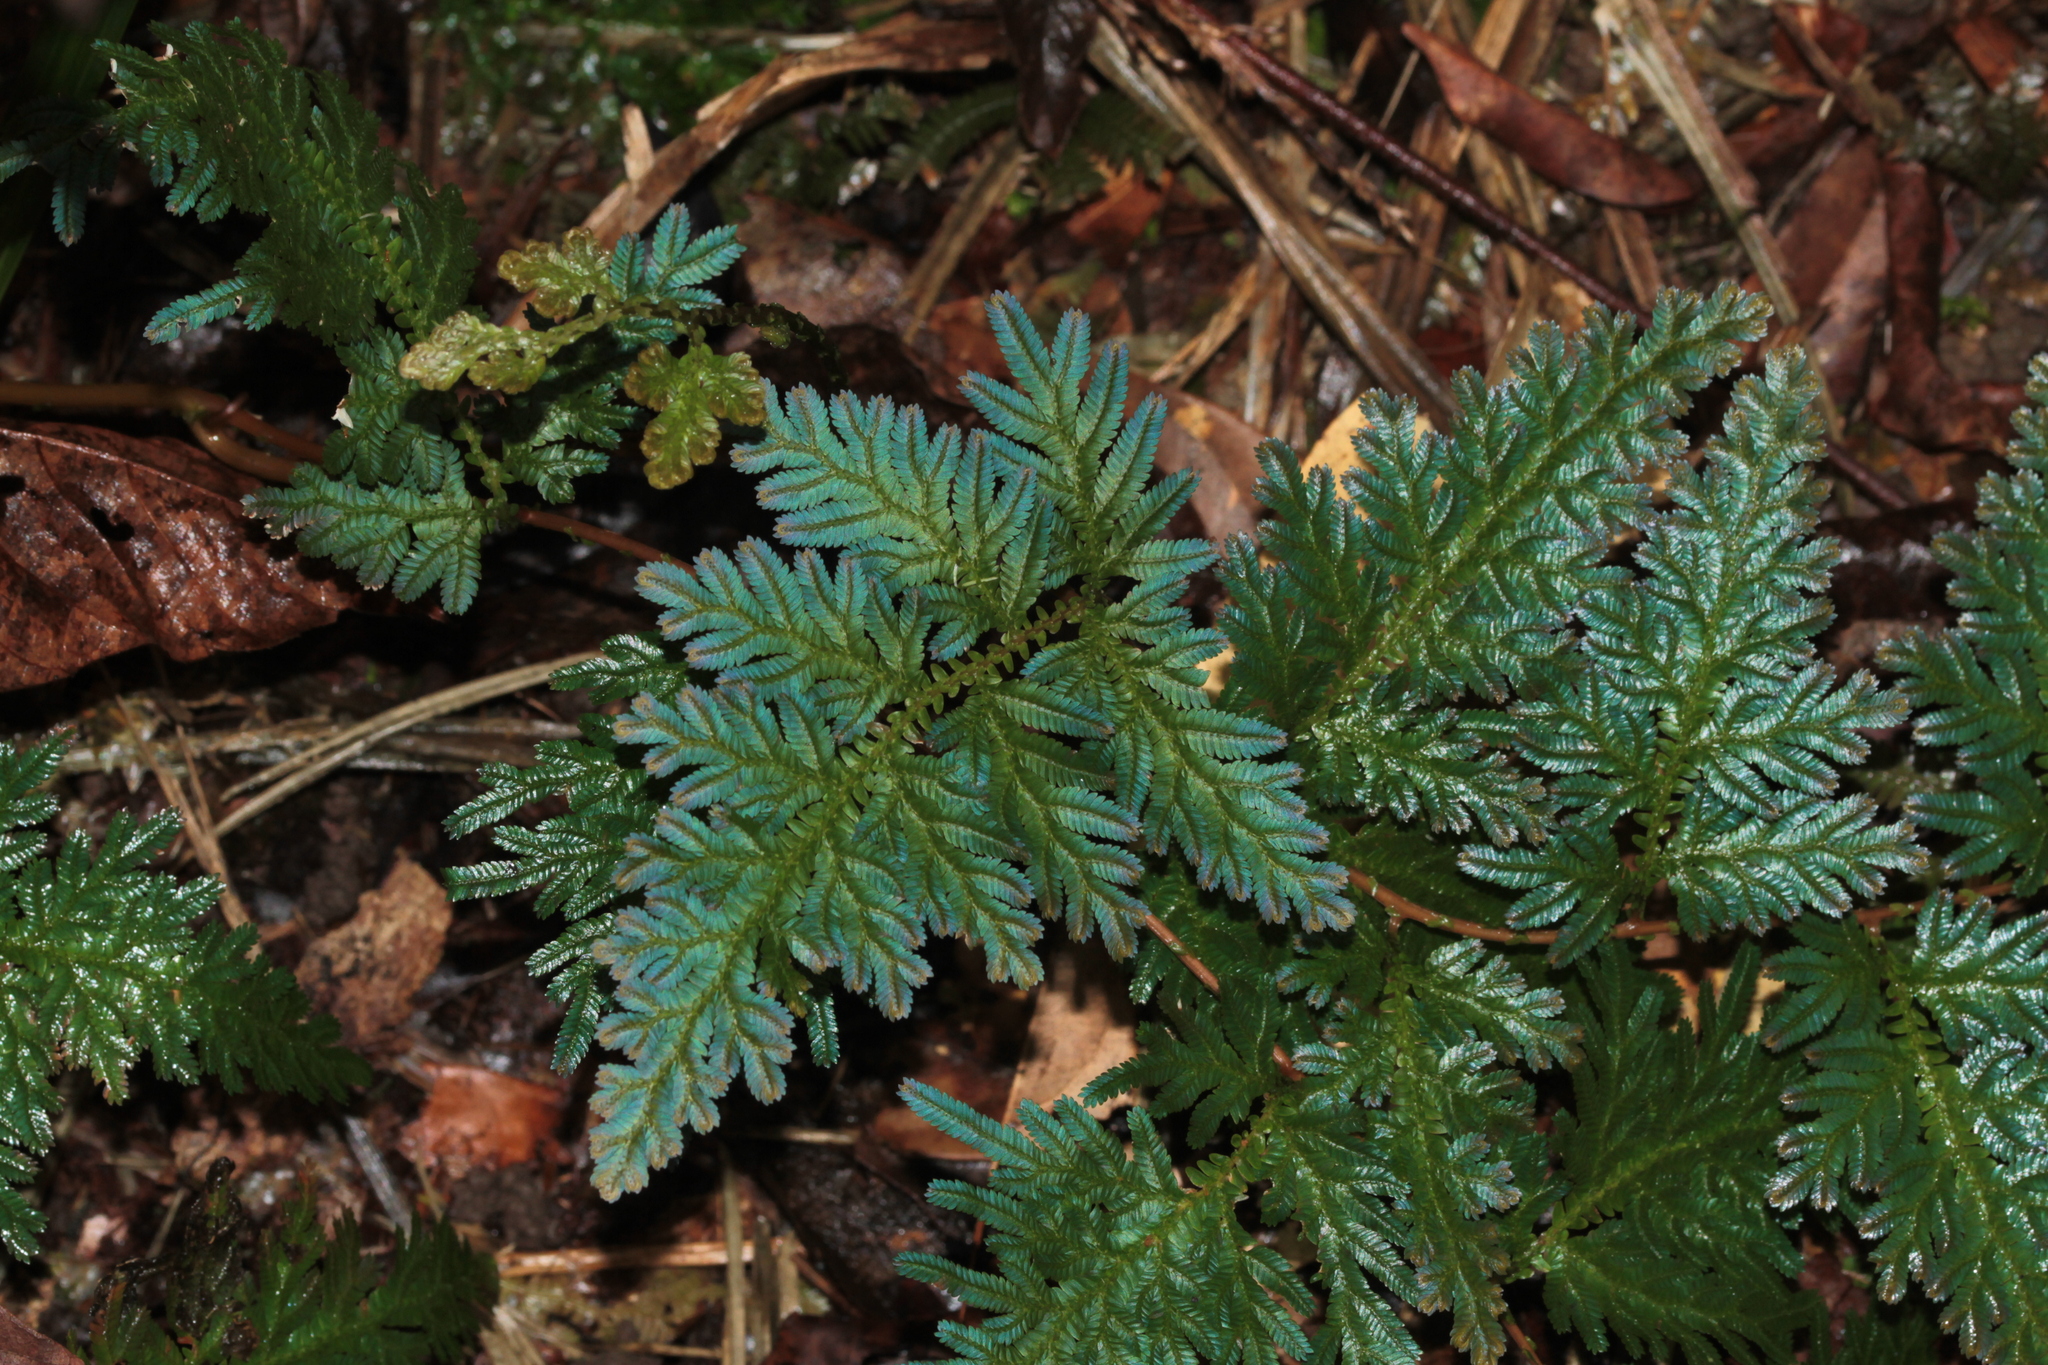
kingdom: Plantae
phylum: Tracheophyta
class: Lycopodiopsida
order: Selaginellales
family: Selaginellaceae
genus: Selaginella
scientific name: Selaginella willdenowii
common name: Willdenow's spikemoss
